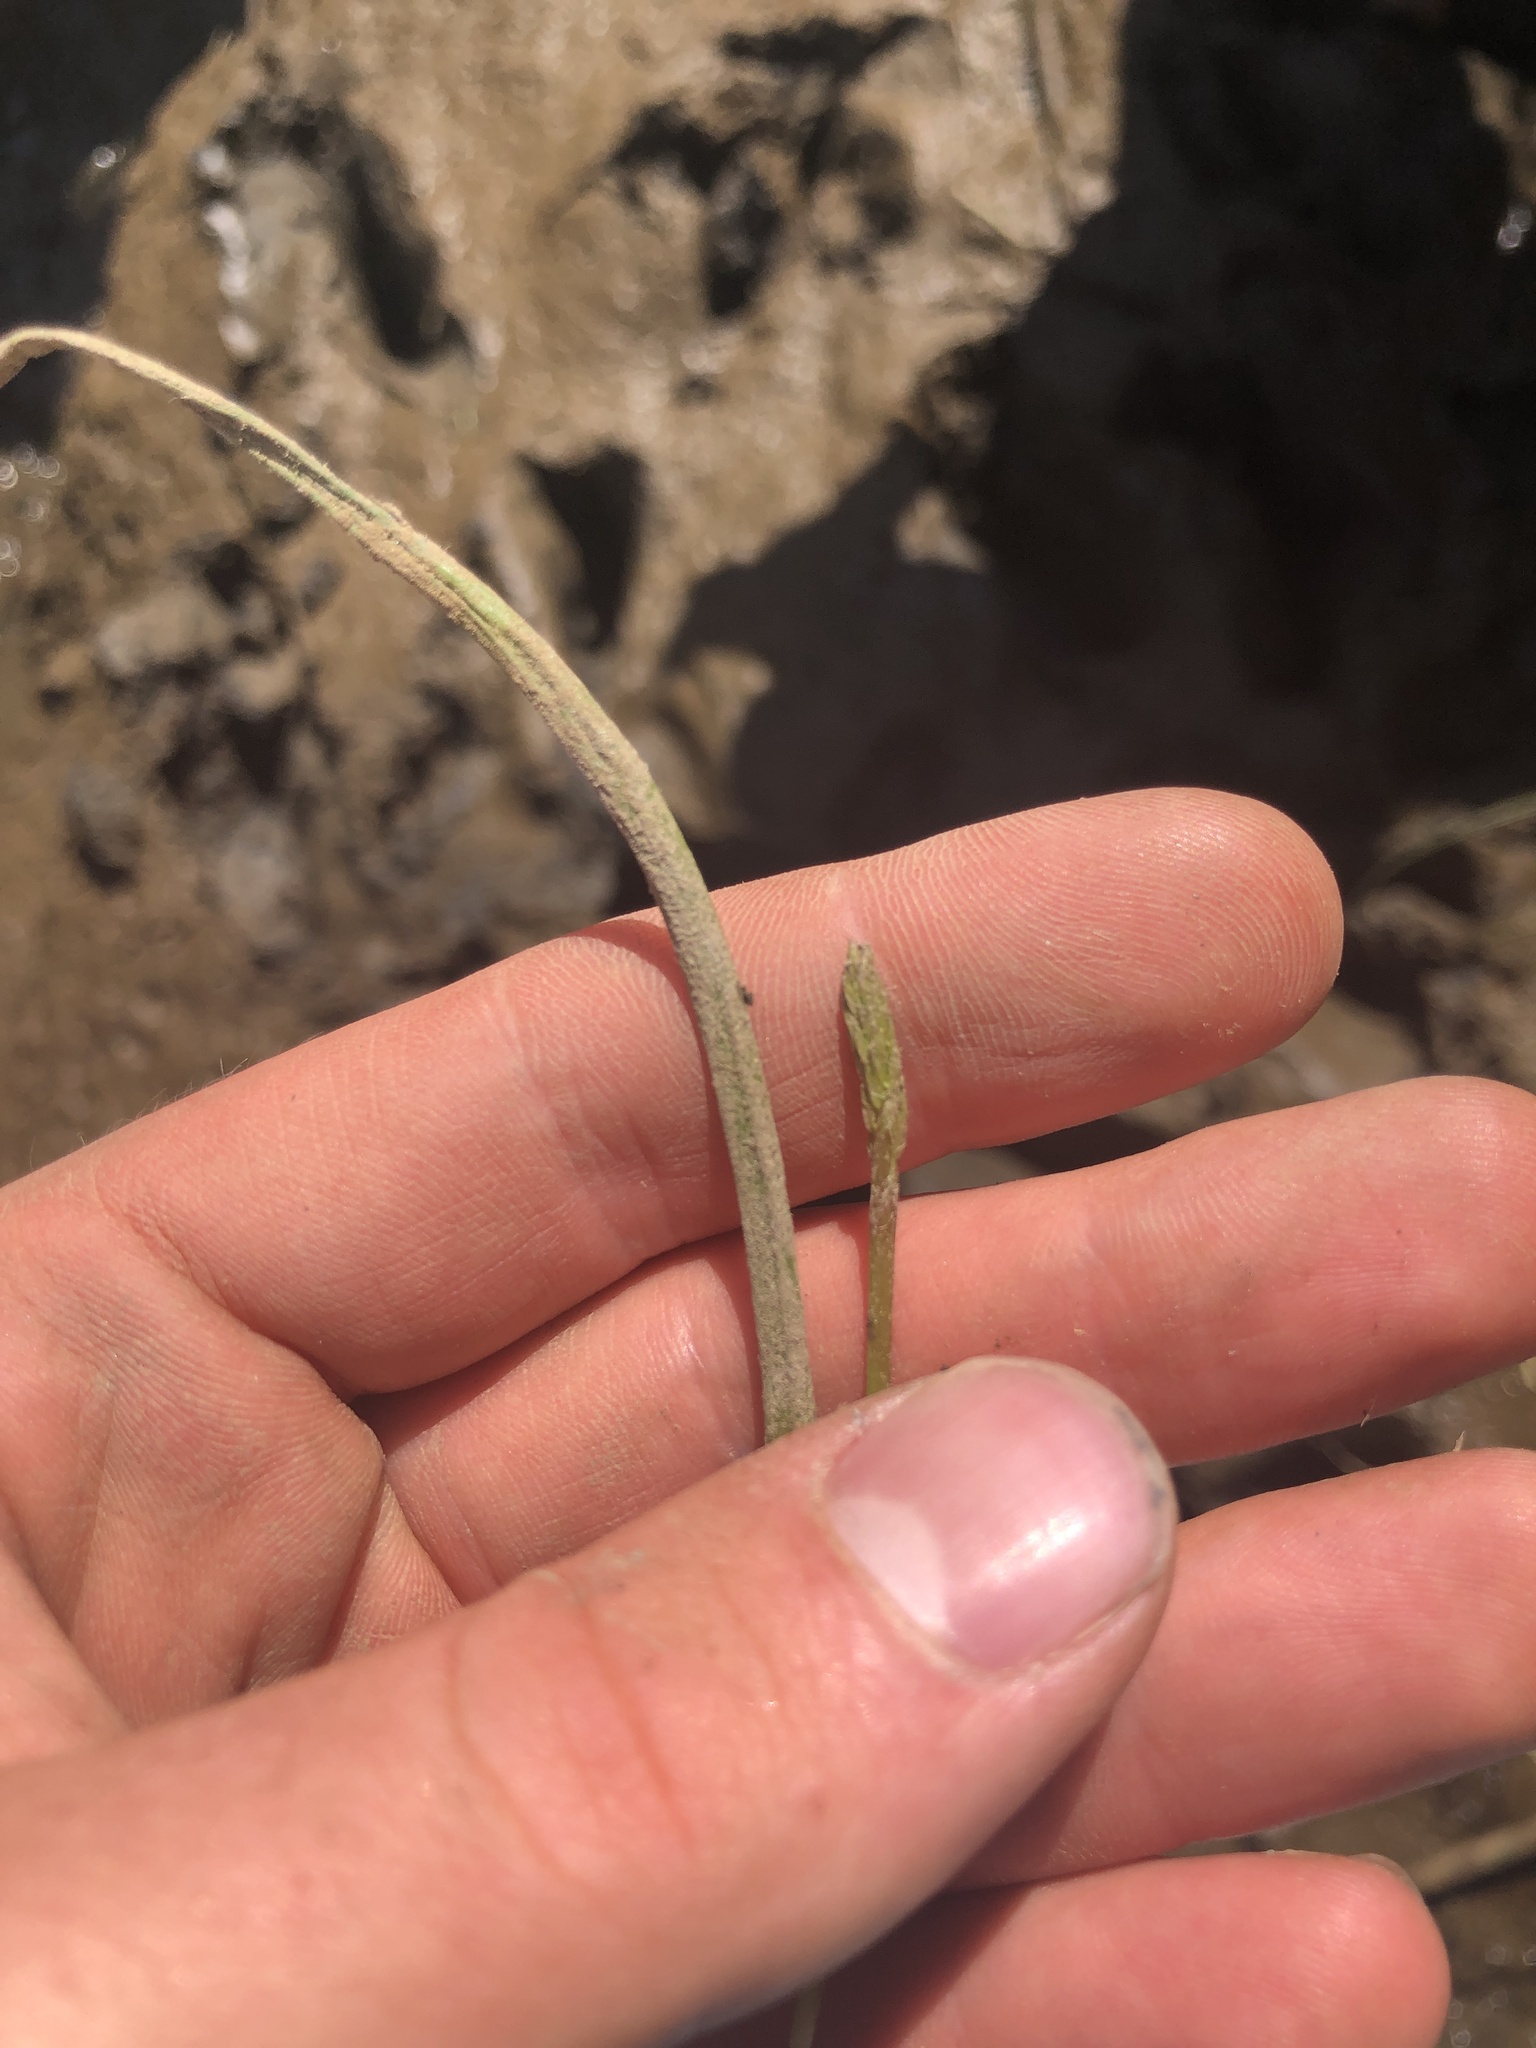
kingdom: Plantae
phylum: Tracheophyta
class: Liliopsida
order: Alismatales
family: Juncaginaceae
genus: Triglochin
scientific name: Triglochin scilloides
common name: Awl-leaved lilaea
